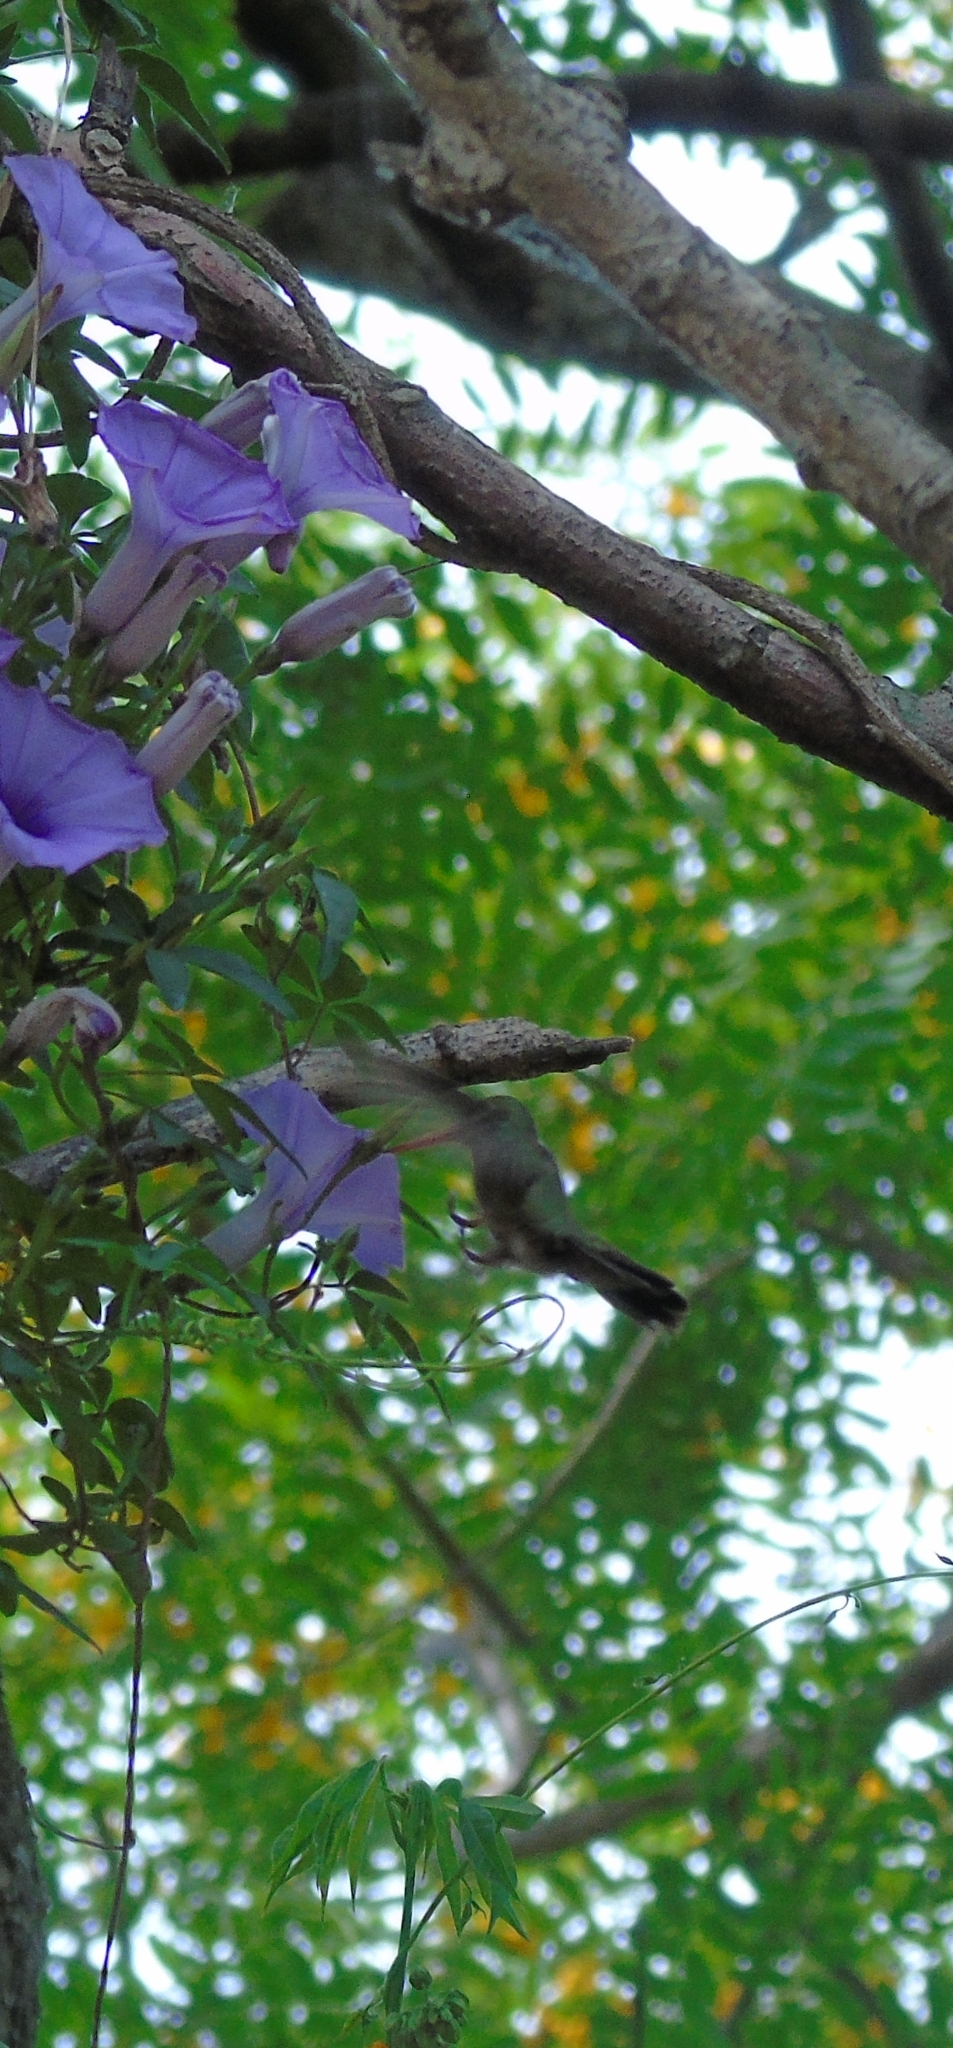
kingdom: Animalia
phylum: Chordata
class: Aves
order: Apodiformes
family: Trochilidae
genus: Hylocharis
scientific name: Hylocharis chrysura
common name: Gilded sapphire
